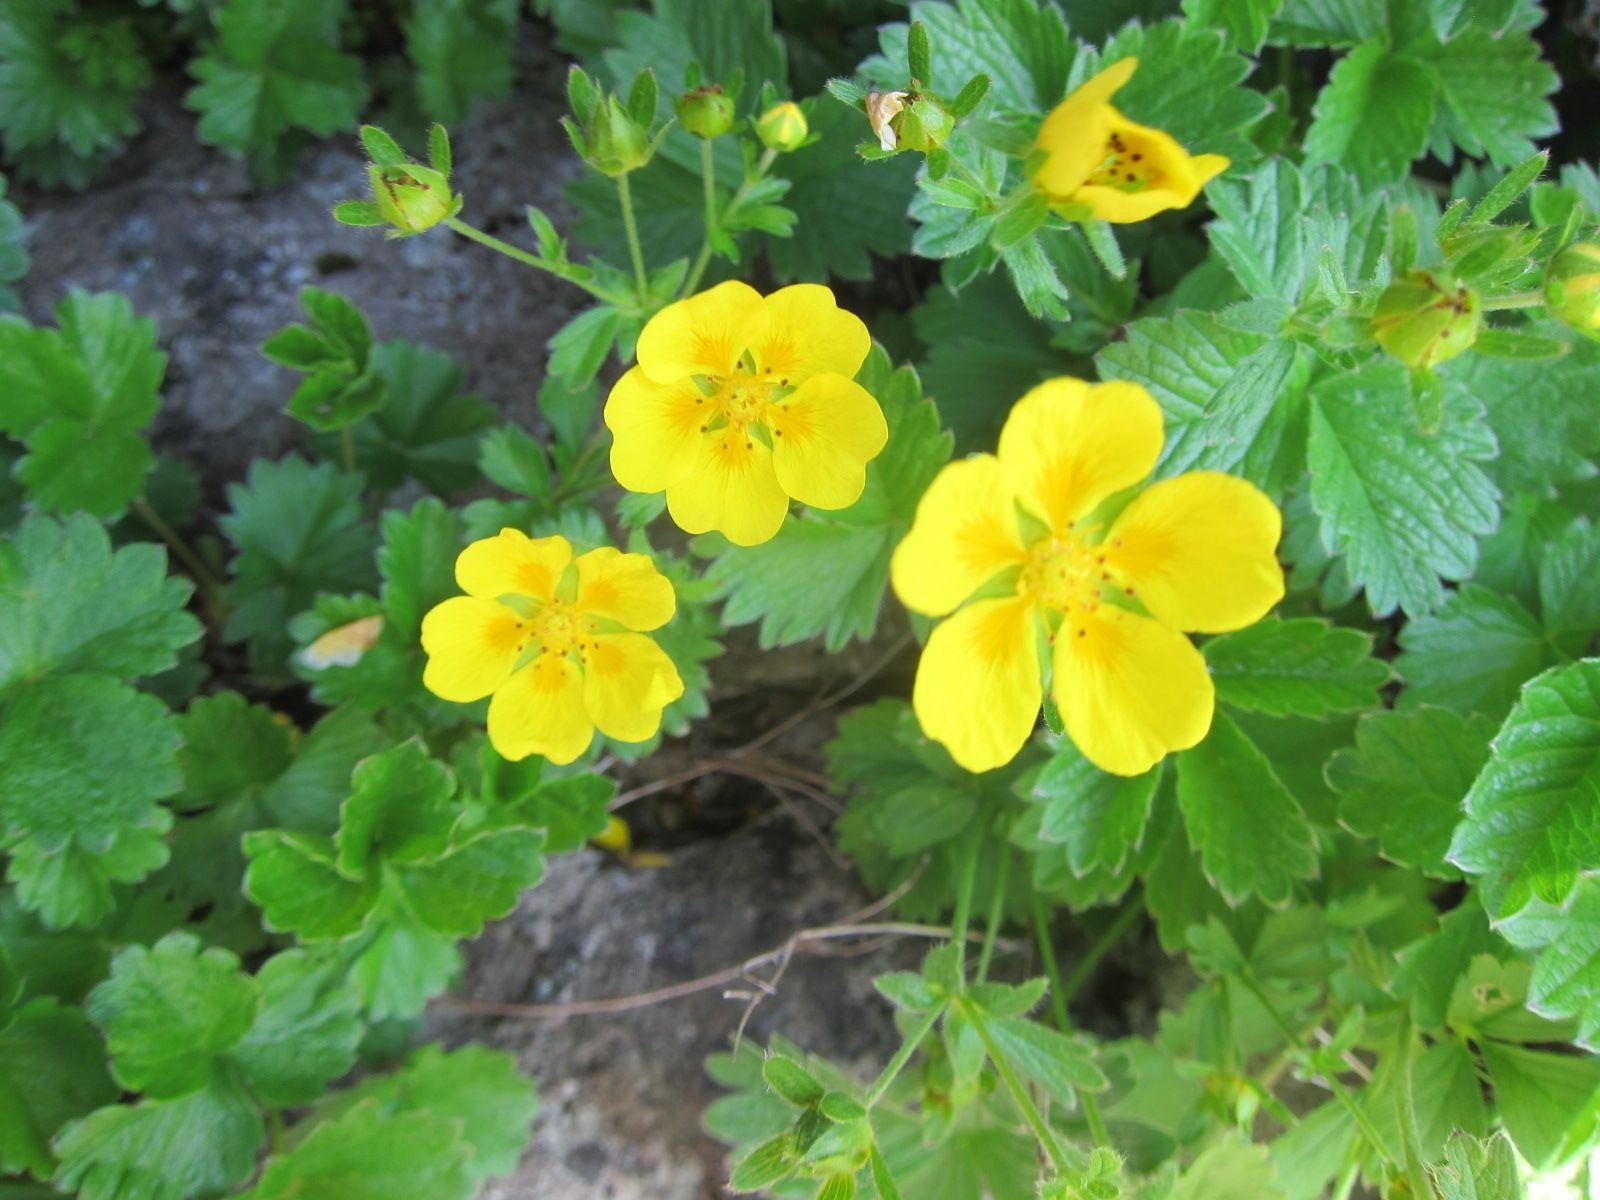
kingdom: Plantae
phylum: Tracheophyta
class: Magnoliopsida
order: Rosales
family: Rosaceae
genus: Potentilla
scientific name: Potentilla matsumurae
